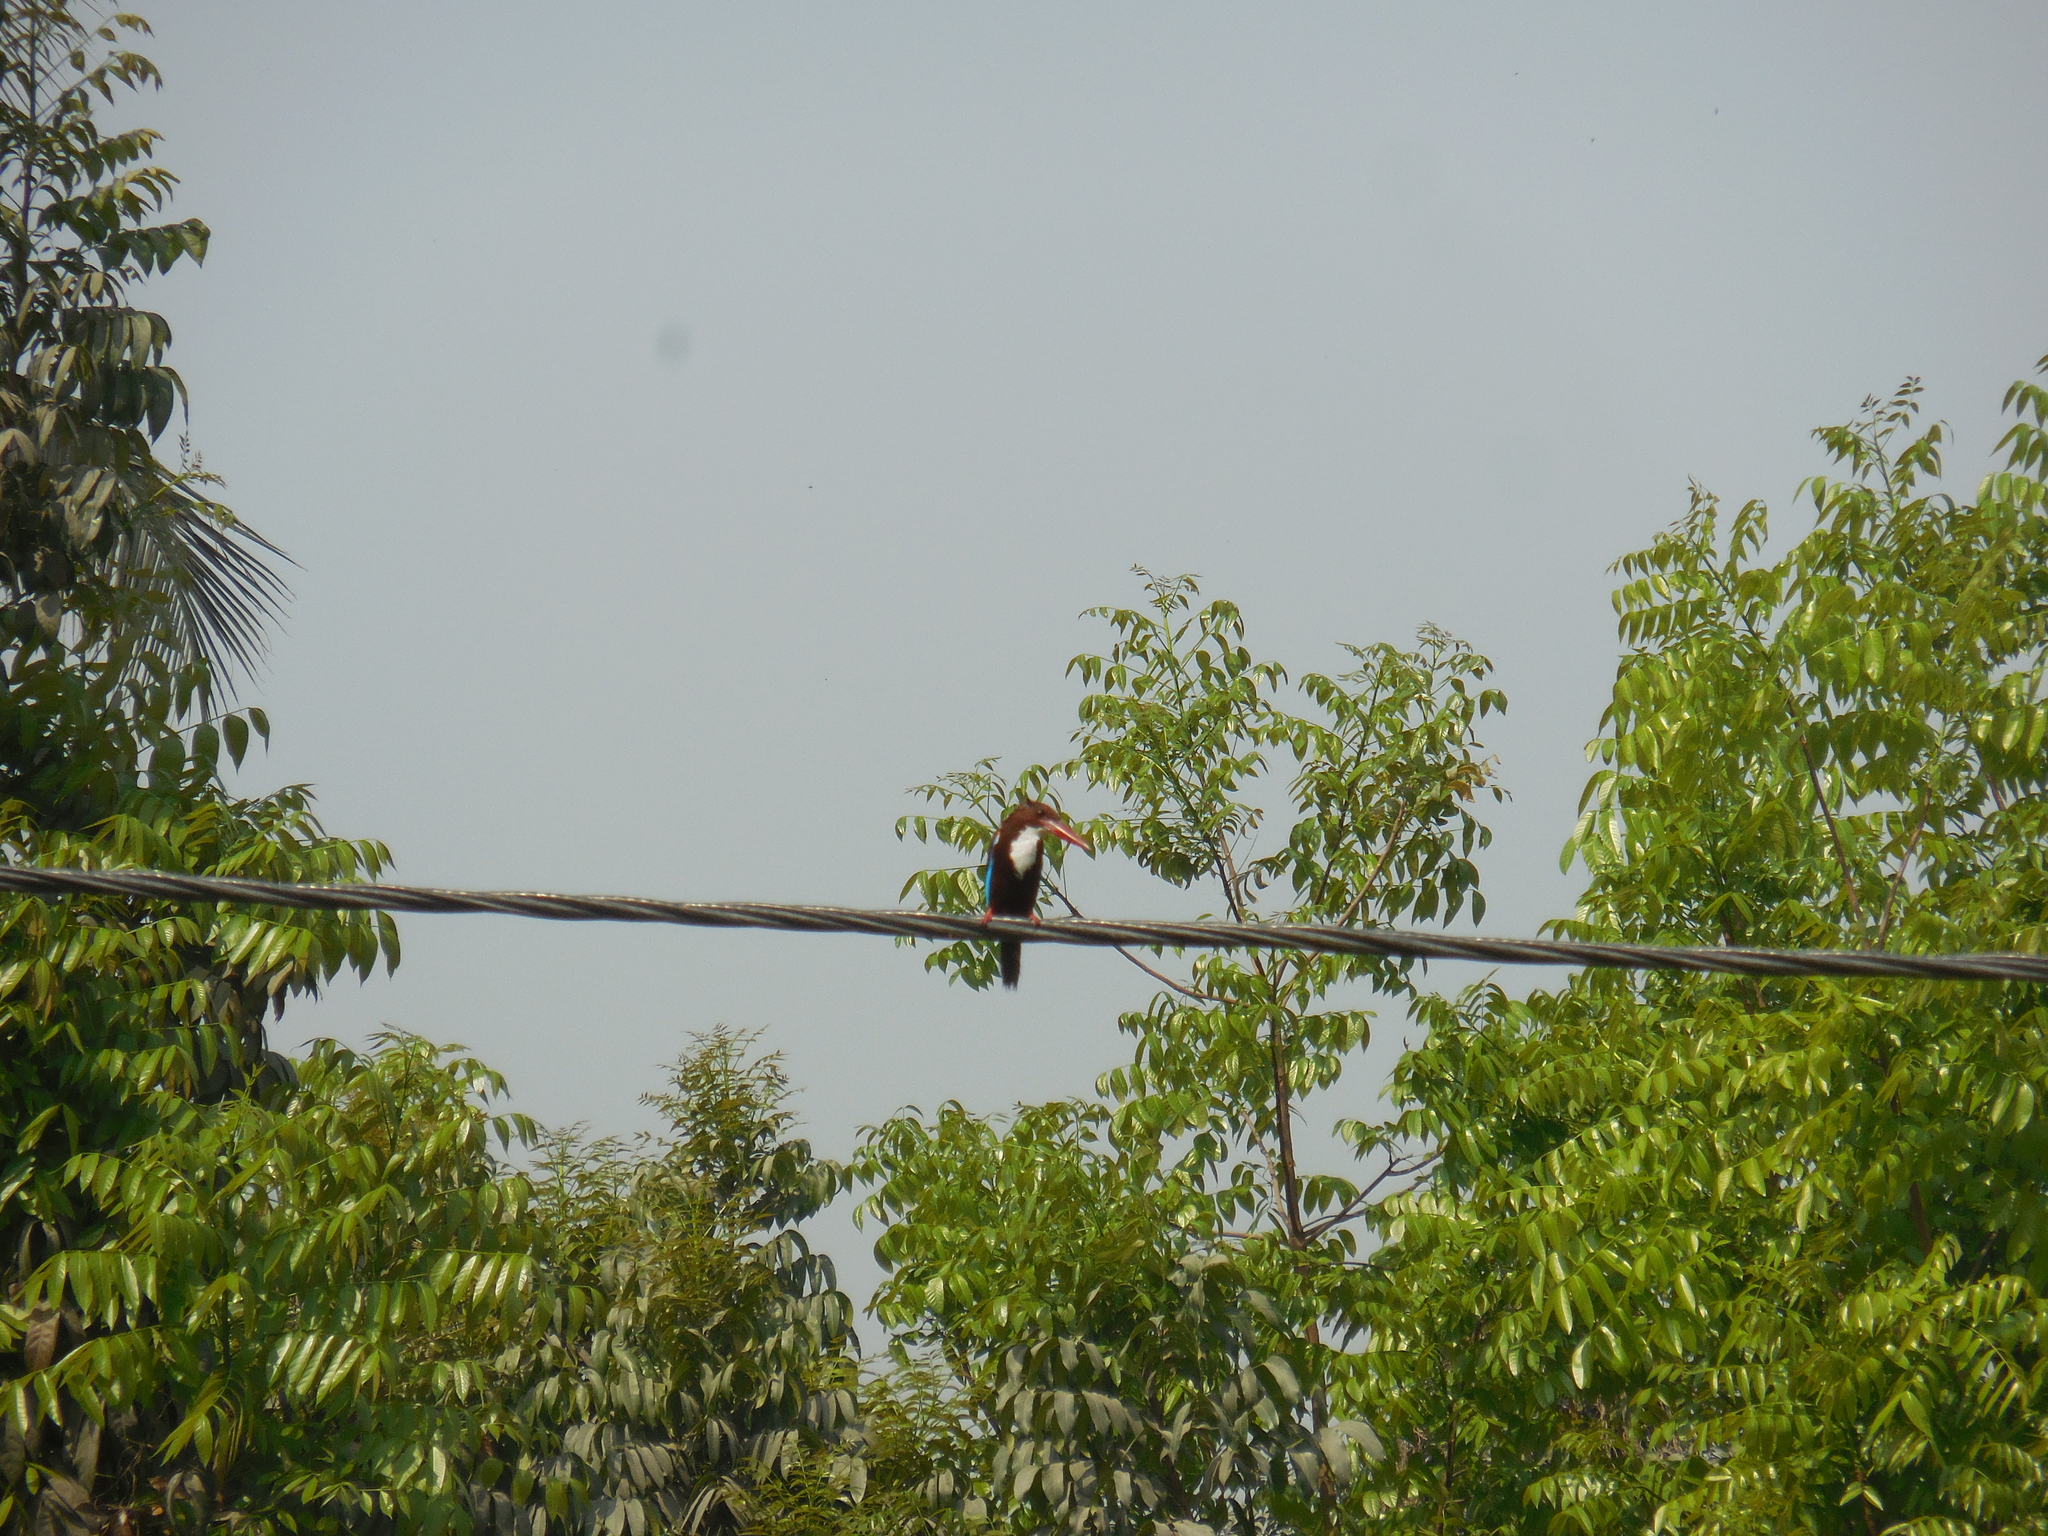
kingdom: Animalia
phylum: Chordata
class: Aves
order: Coraciiformes
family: Alcedinidae
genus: Halcyon
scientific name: Halcyon smyrnensis
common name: White-throated kingfisher
